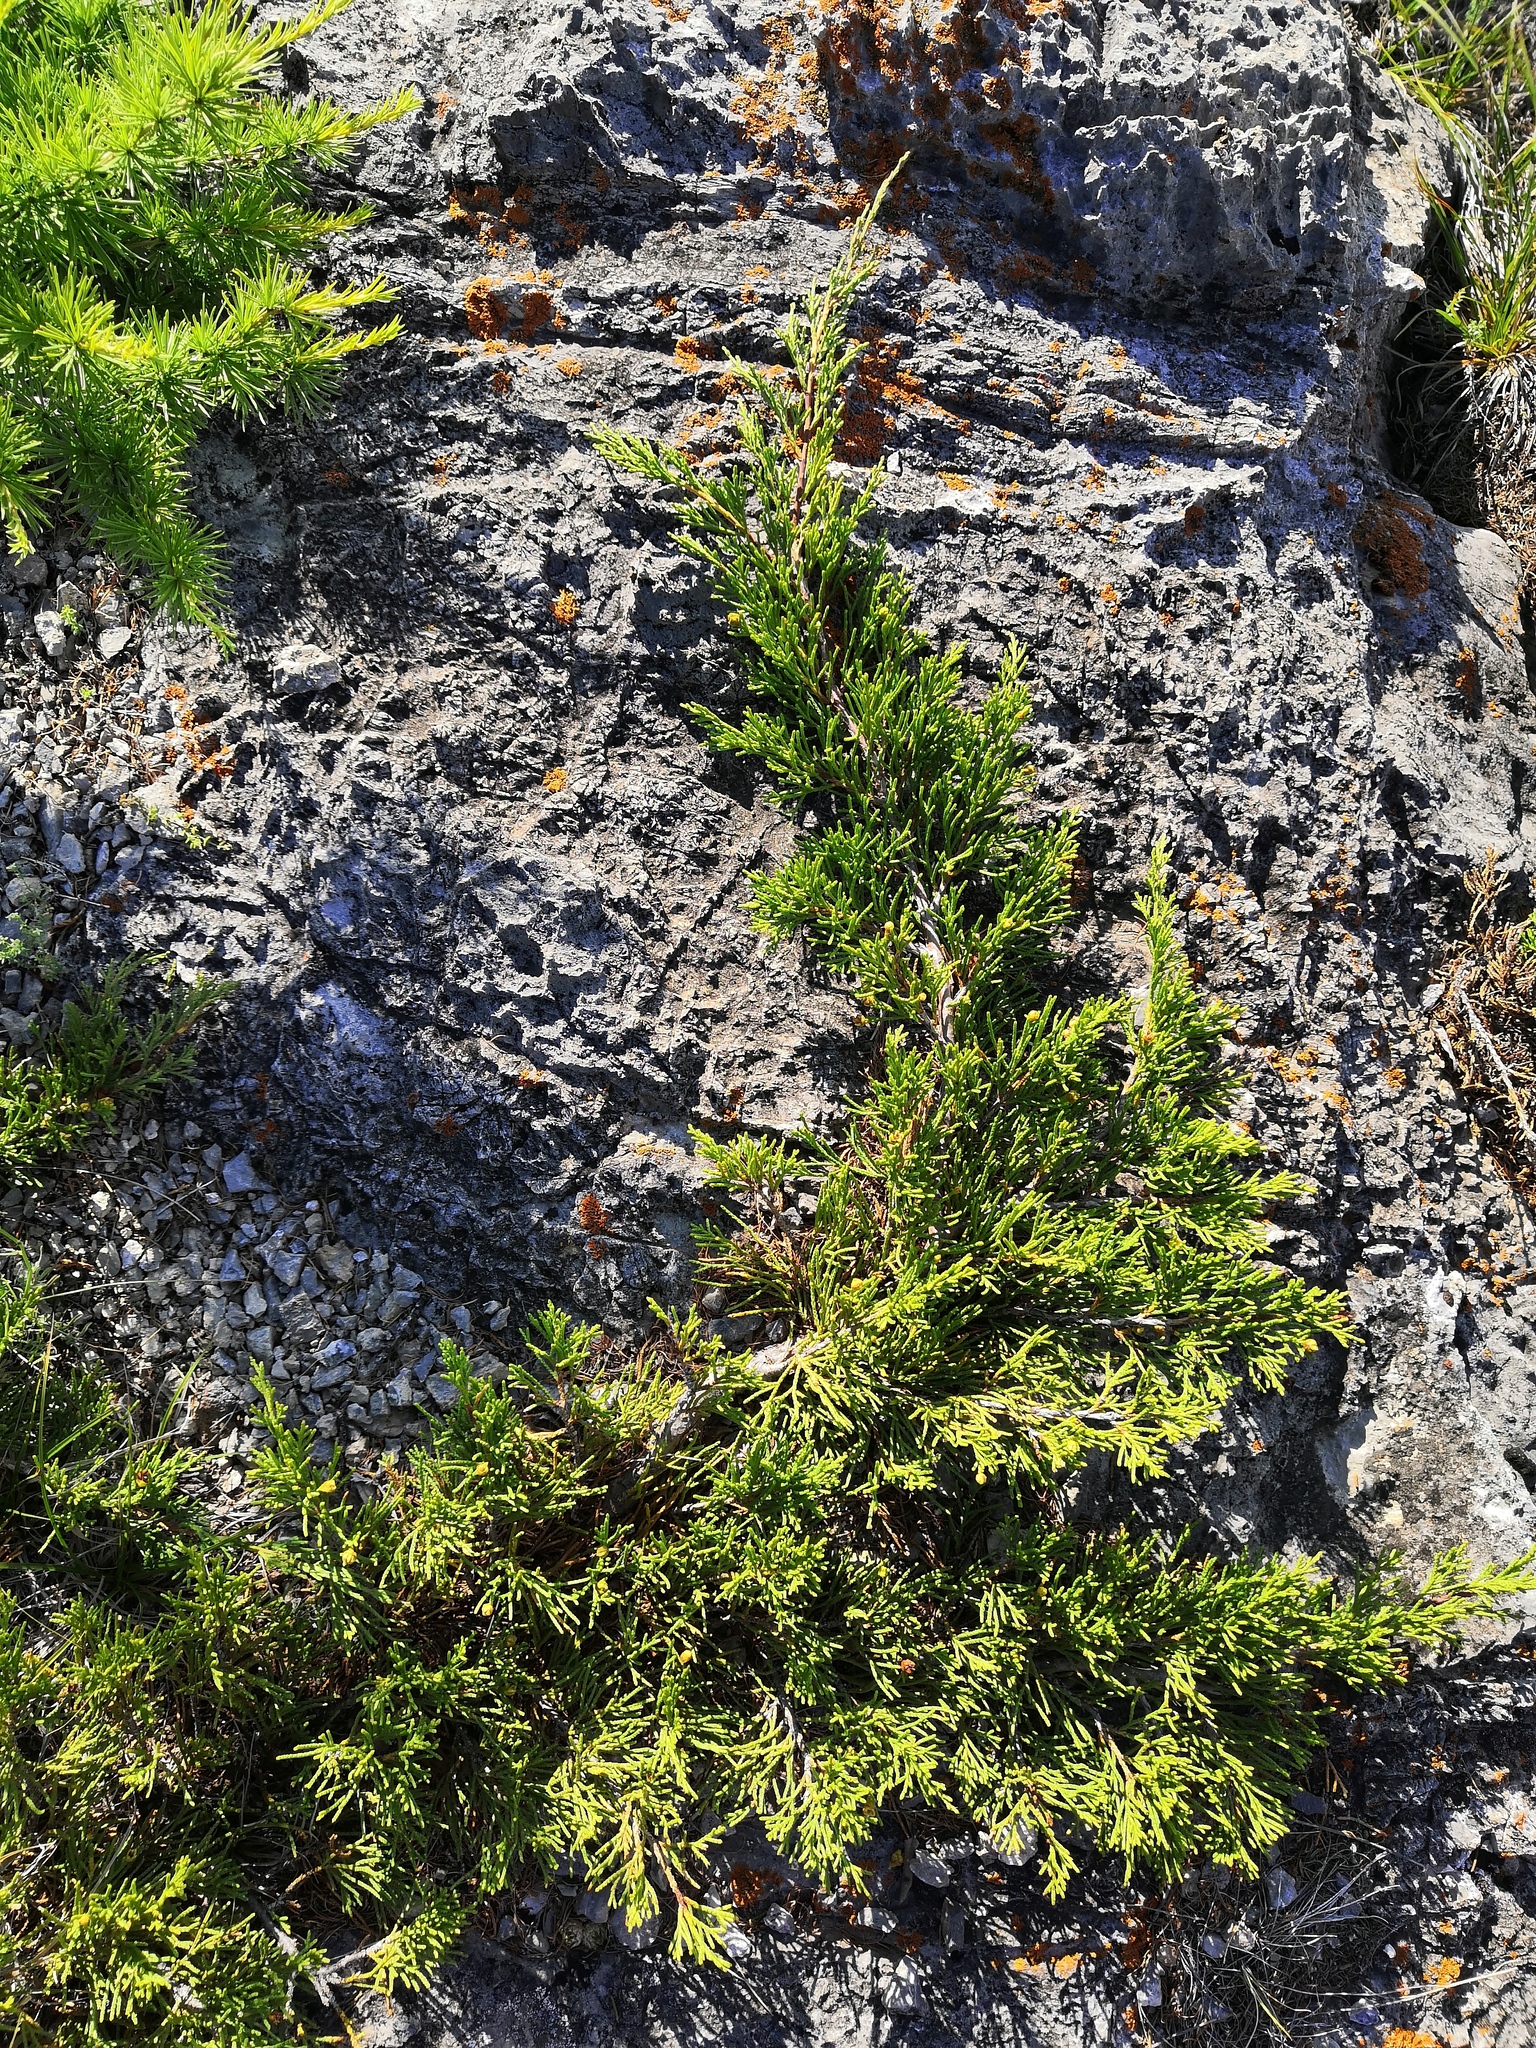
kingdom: Plantae
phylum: Tracheophyta
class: Pinopsida
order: Pinales
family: Cupressaceae
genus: Juniperus
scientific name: Juniperus sabina
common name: Savin
